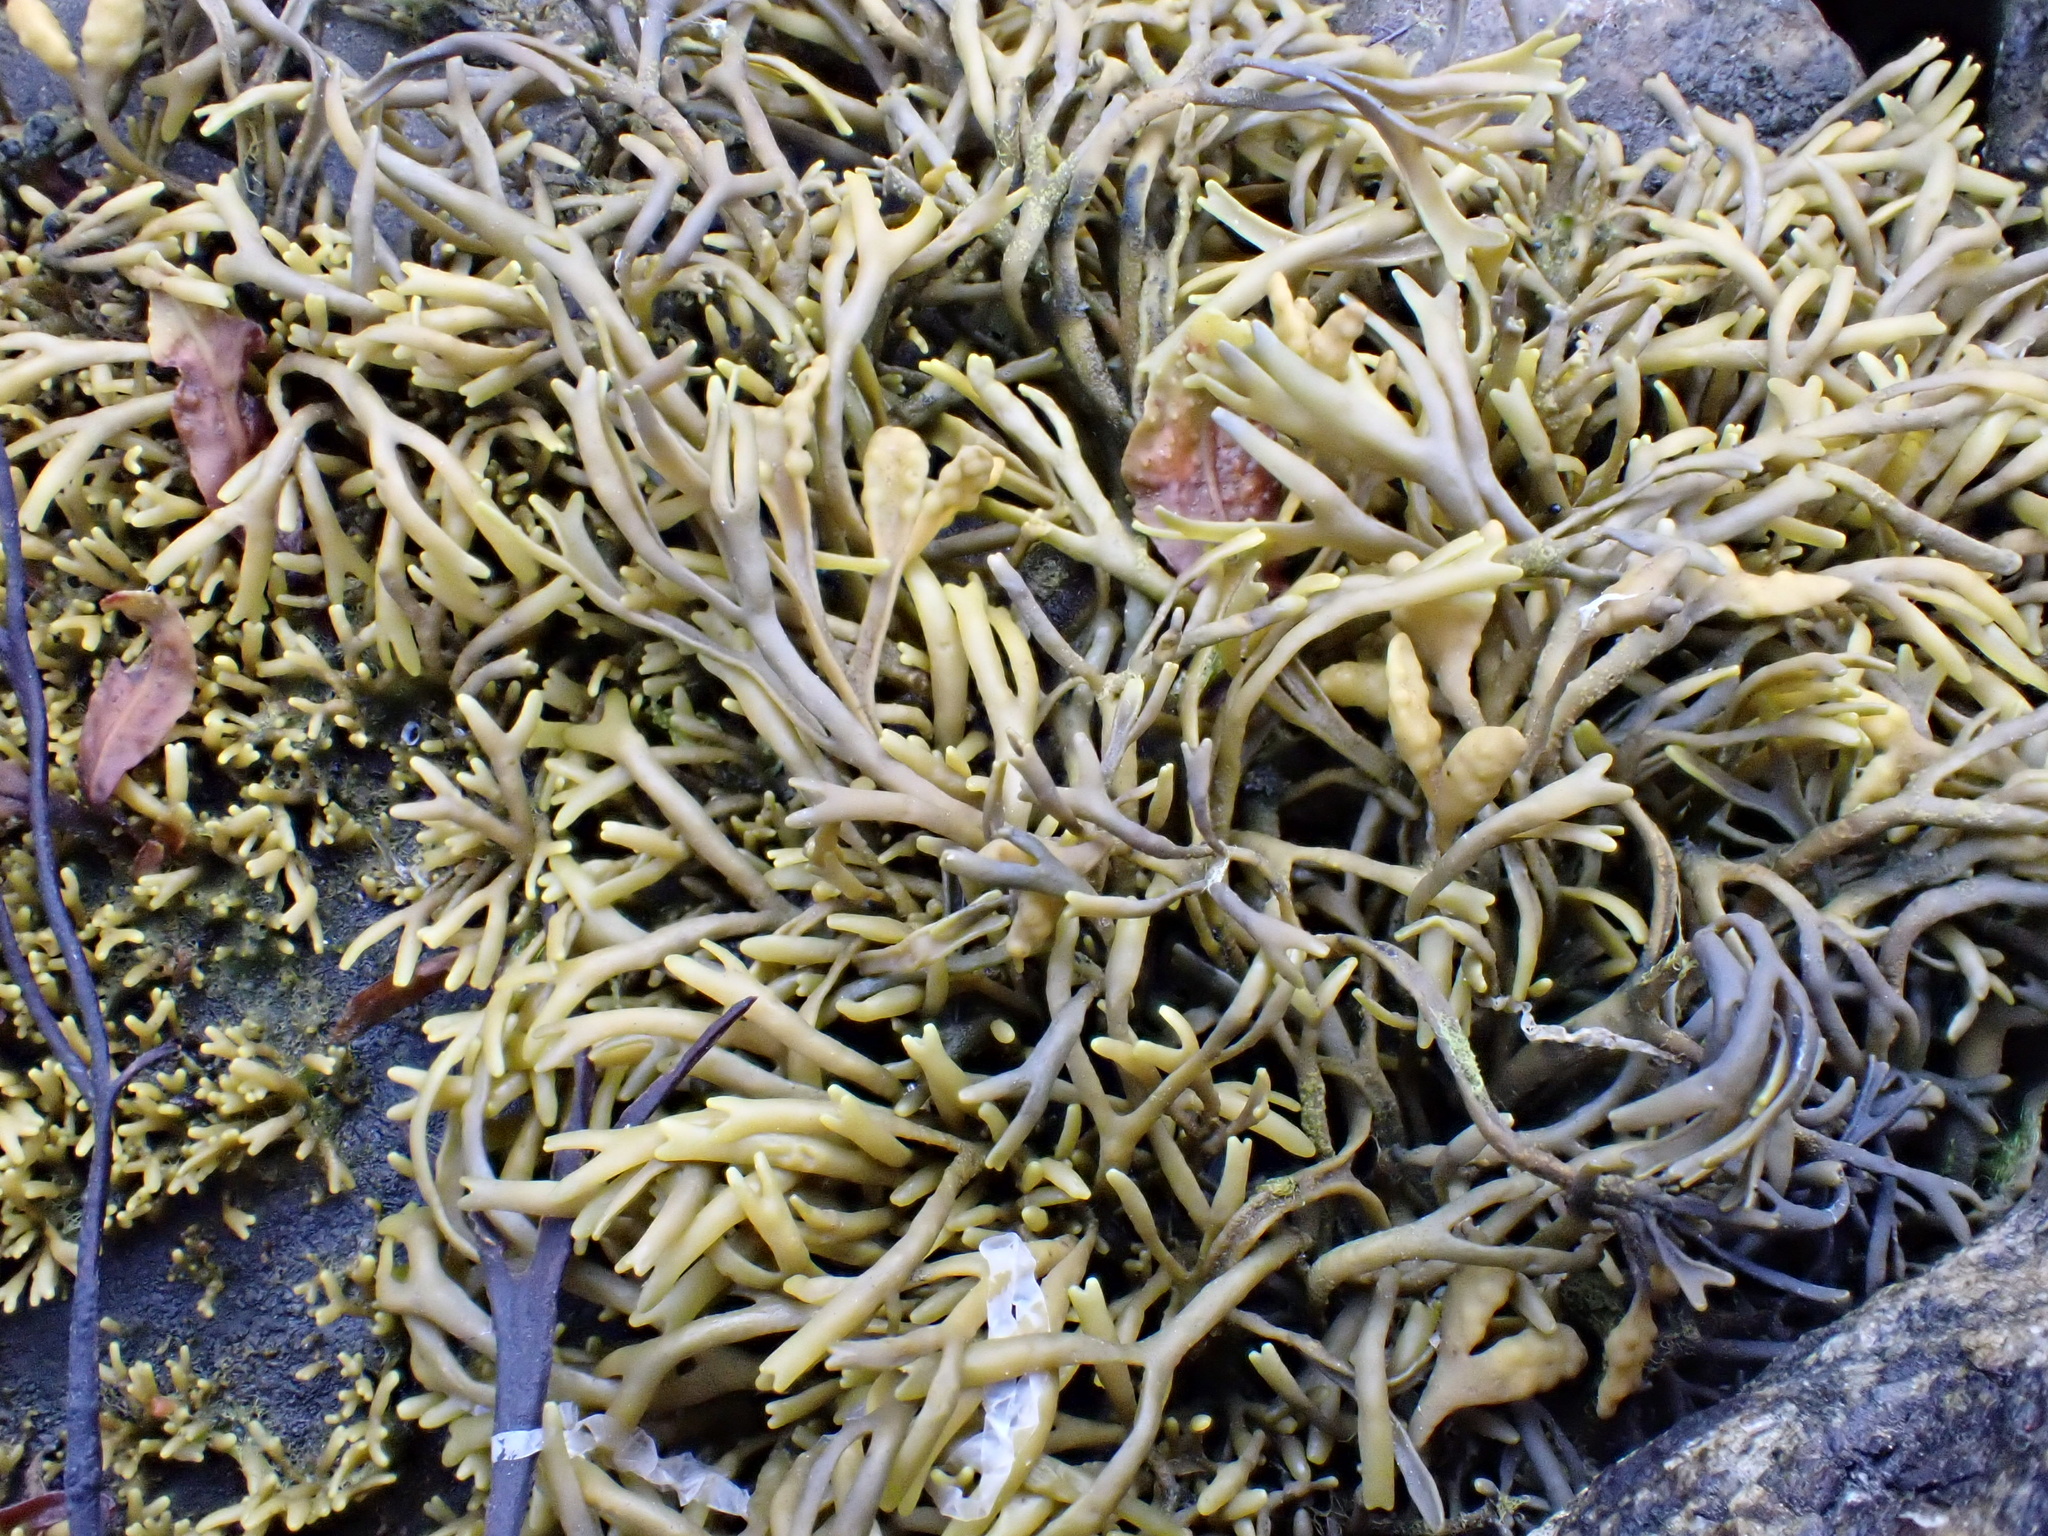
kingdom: Chromista
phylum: Ochrophyta
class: Phaeophyceae
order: Fucales
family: Fucaceae
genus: Pelvetia
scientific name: Pelvetia canaliculata
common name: Channelled wrack
